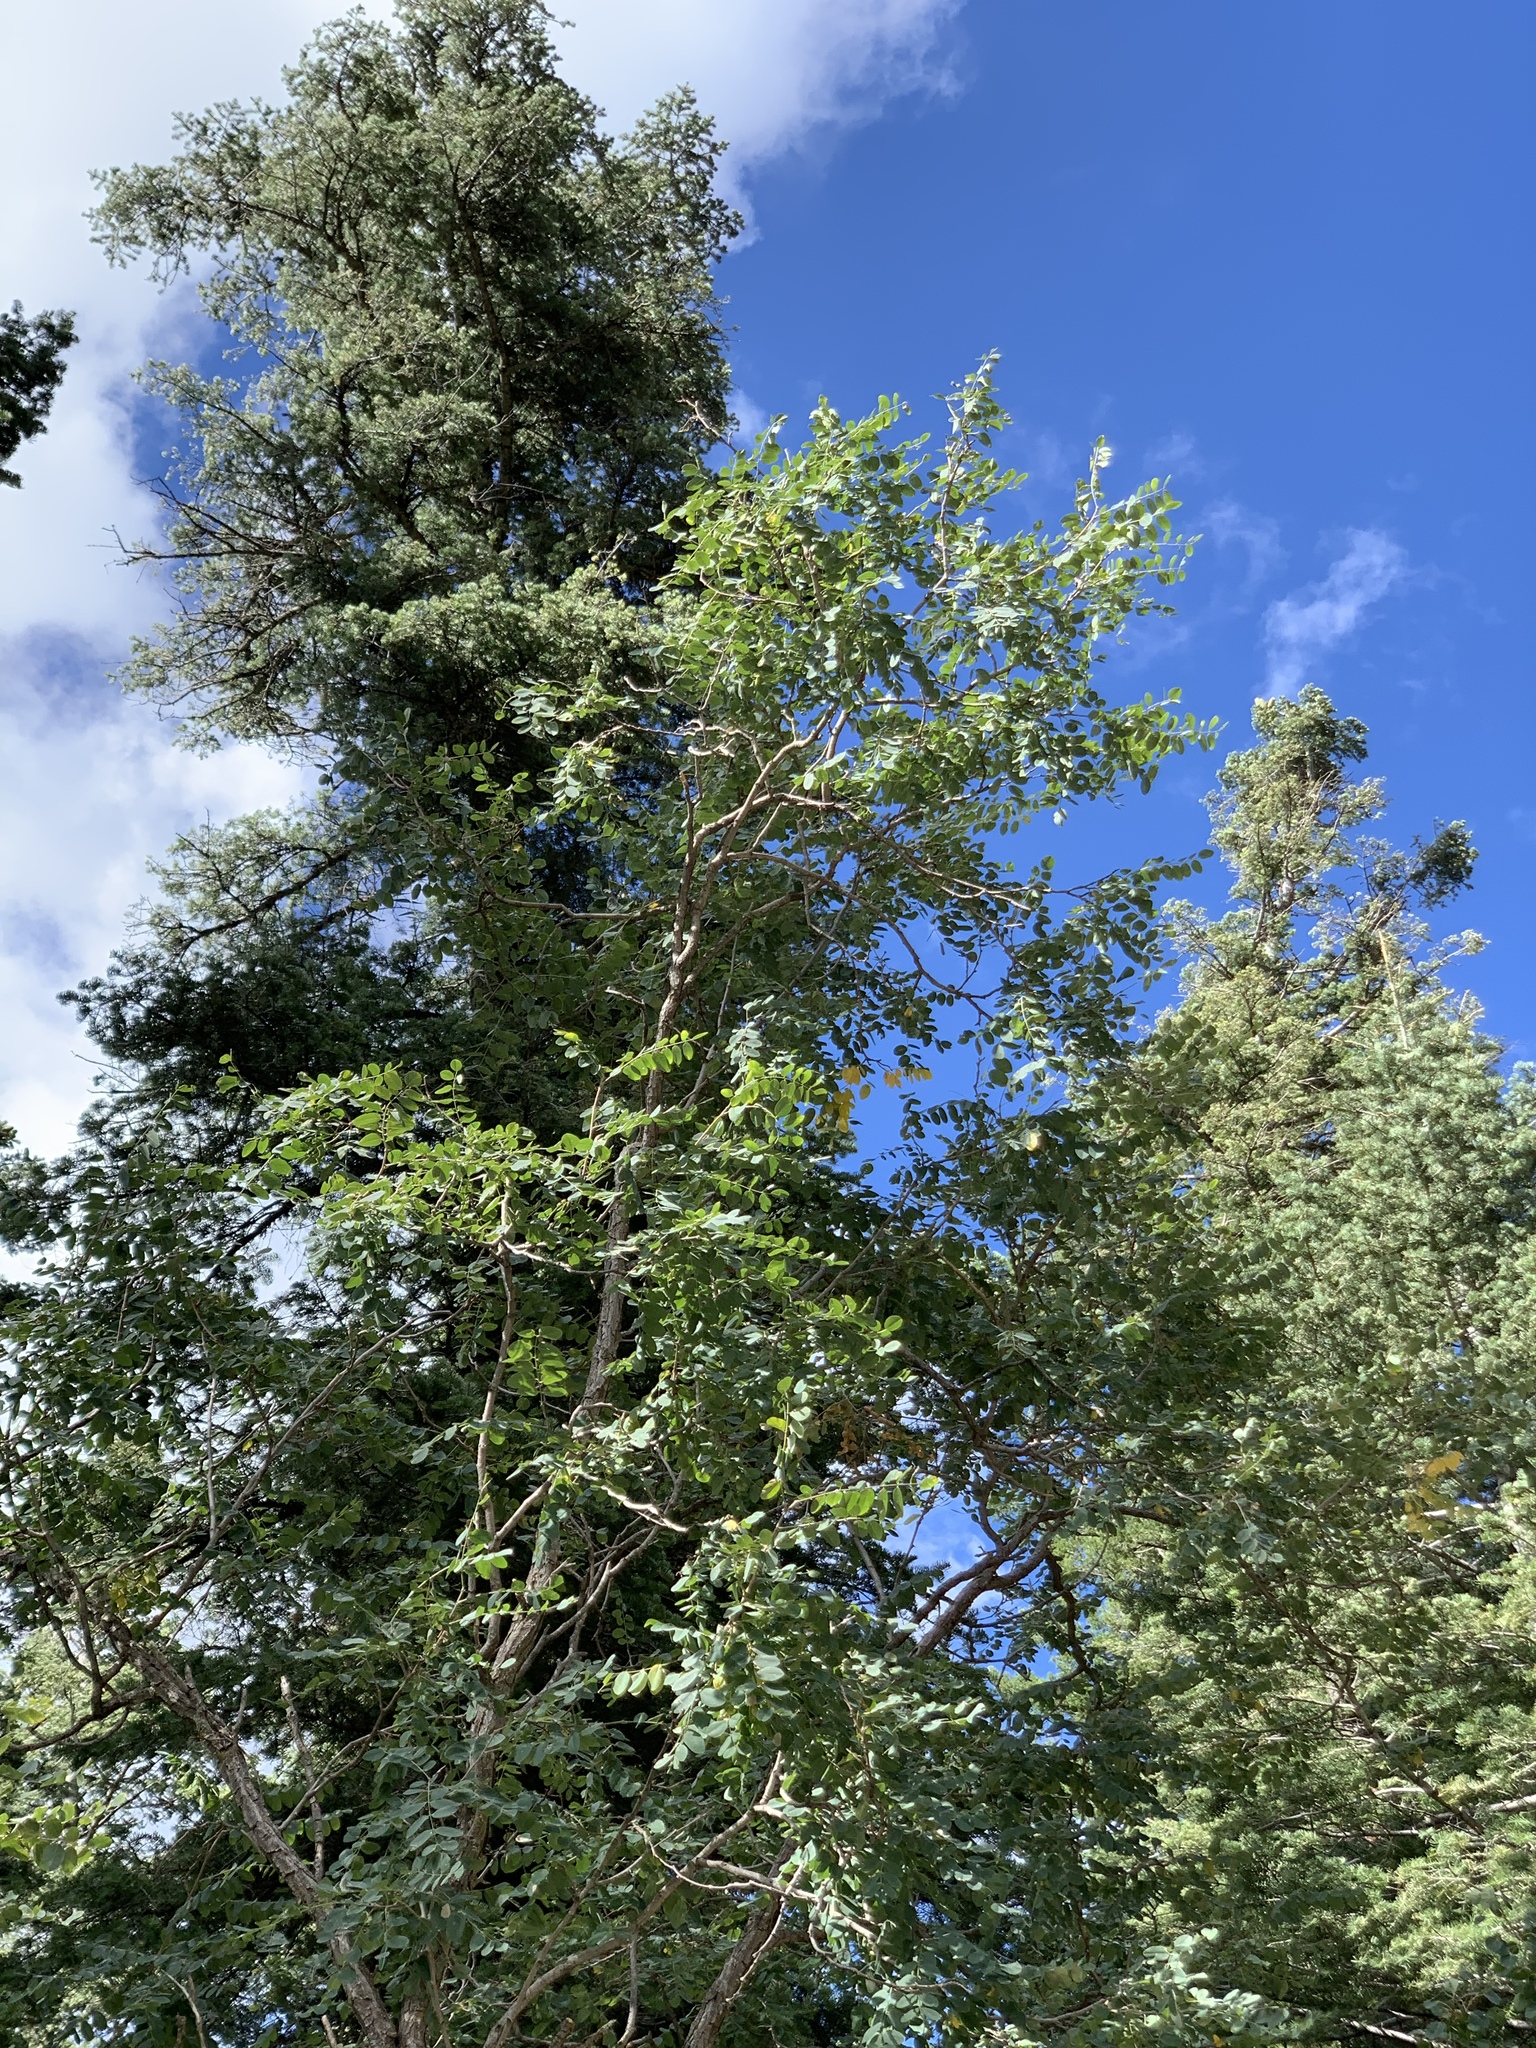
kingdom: Plantae
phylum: Tracheophyta
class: Magnoliopsida
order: Fabales
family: Fabaceae
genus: Robinia
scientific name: Robinia neomexicana
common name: New mexico locust
